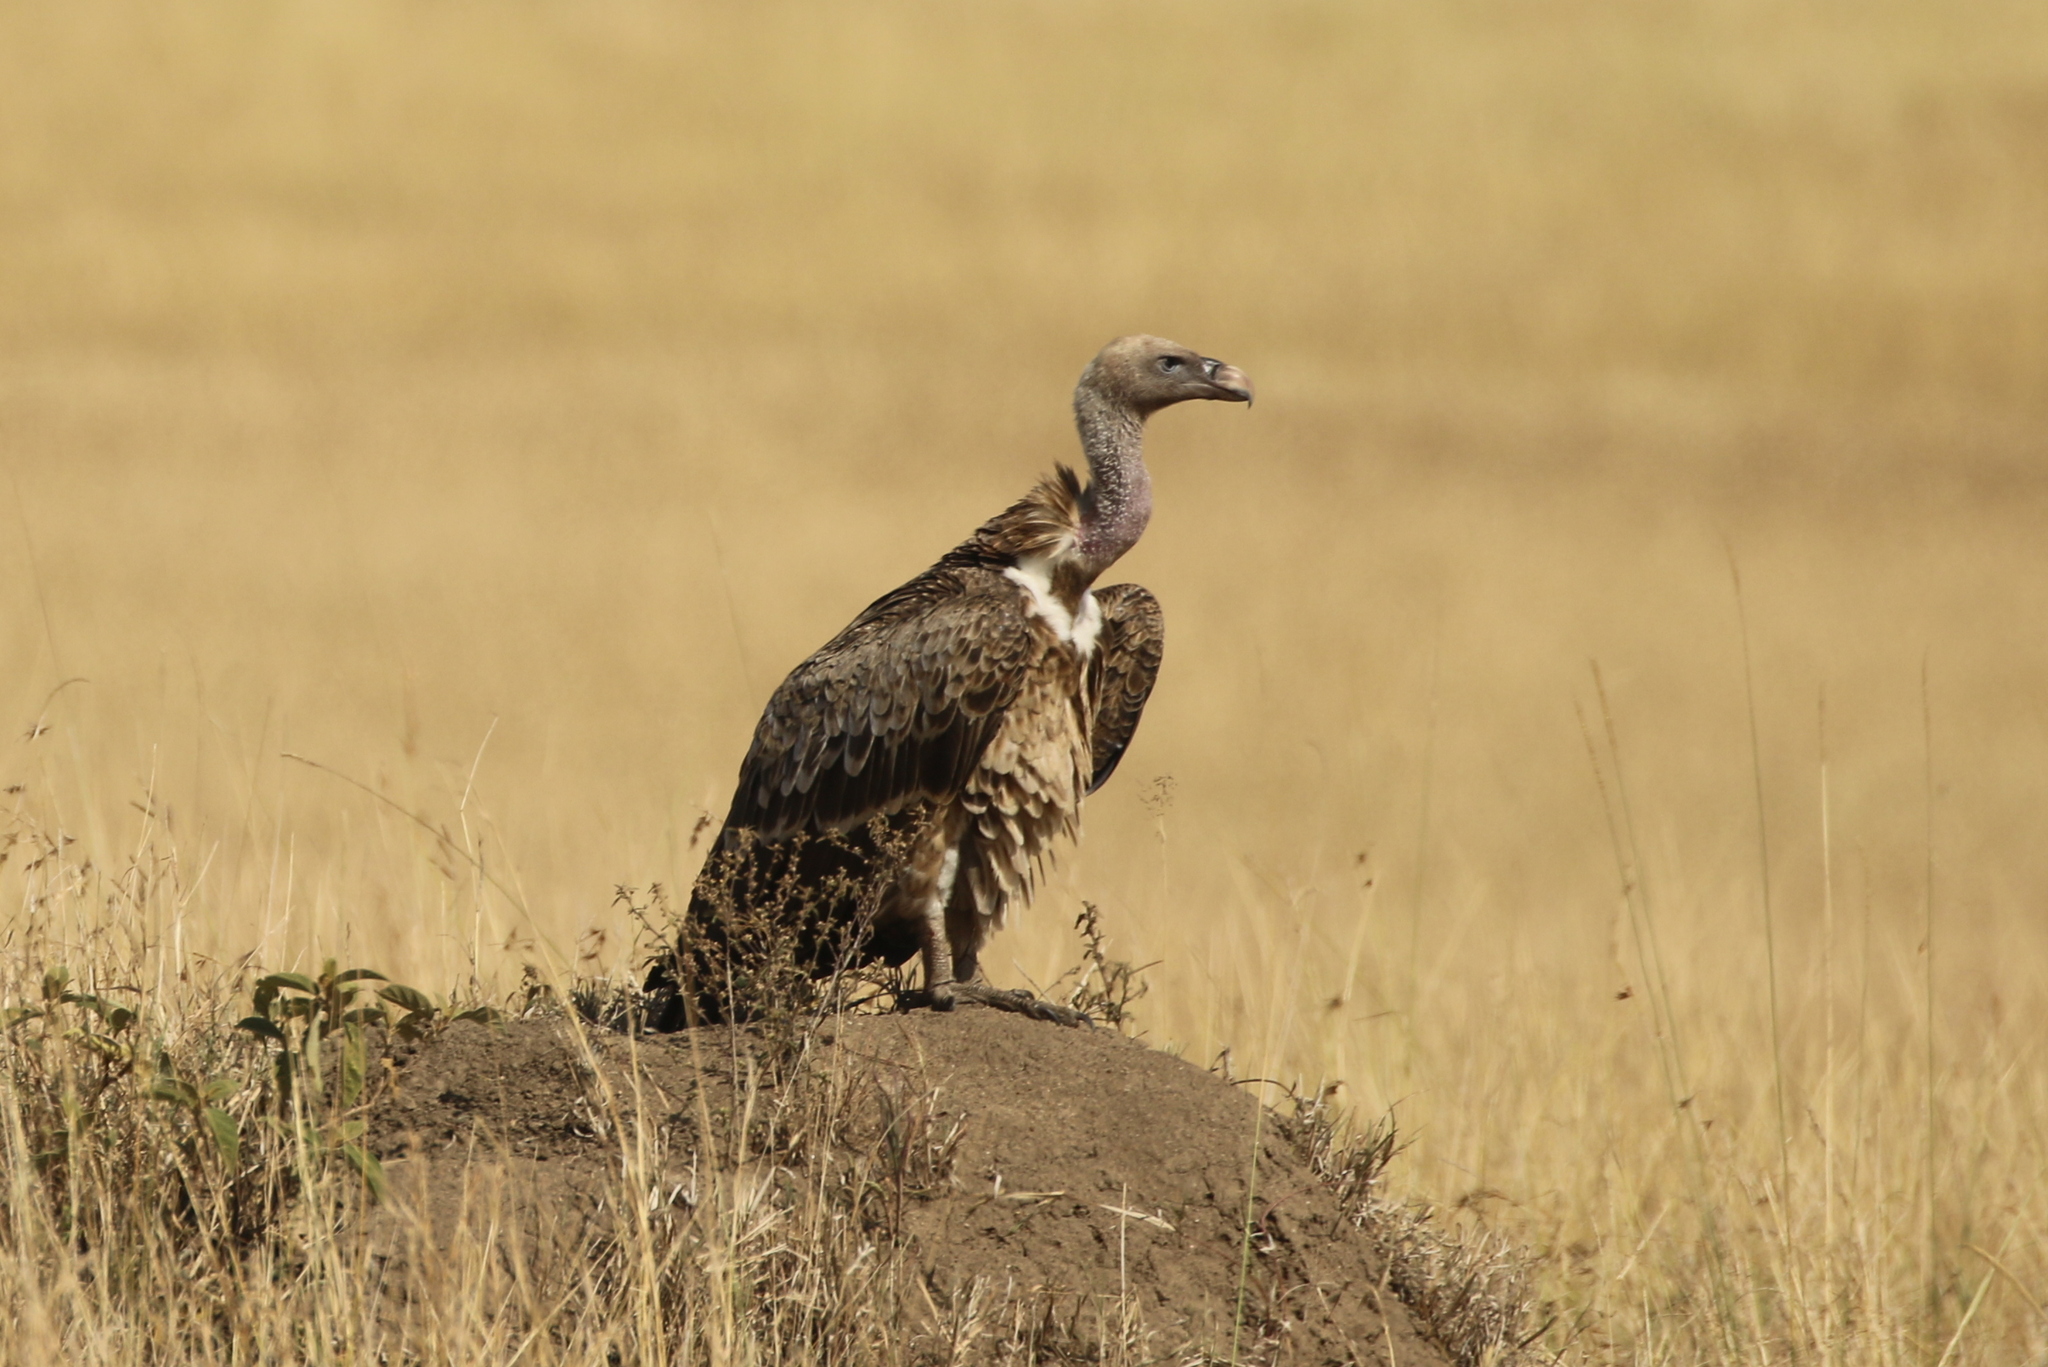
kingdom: Animalia
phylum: Chordata
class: Aves
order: Accipitriformes
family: Accipitridae
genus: Gyps
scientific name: Gyps rueppellii
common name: Rüppell's vulture
